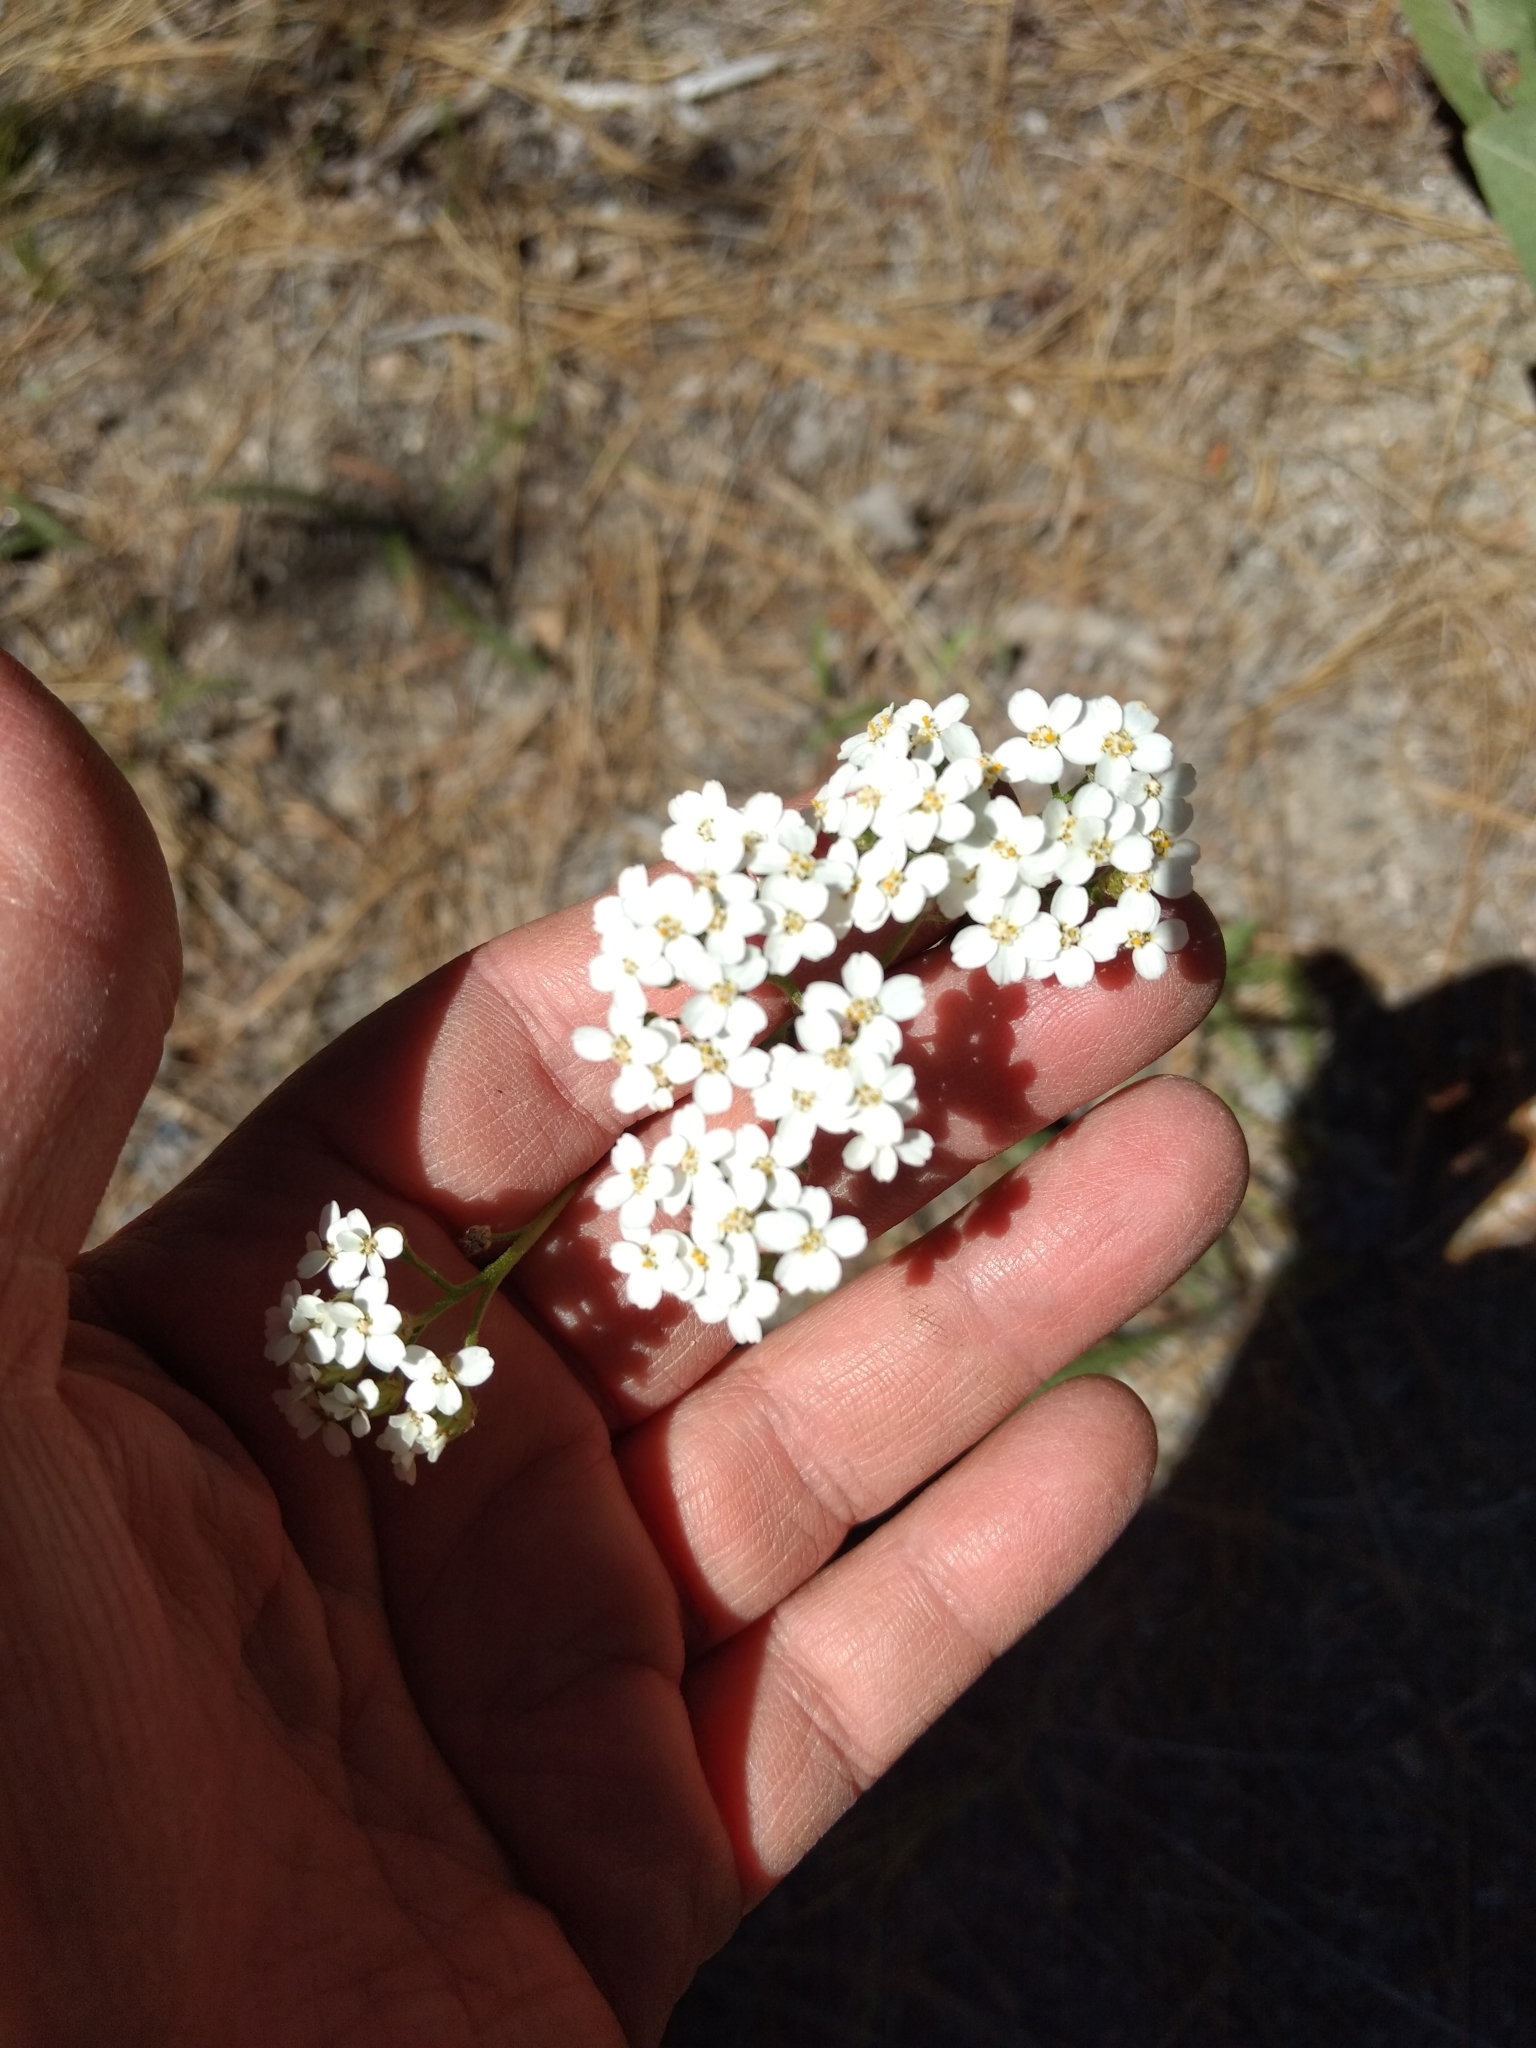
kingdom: Plantae
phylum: Tracheophyta
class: Magnoliopsida
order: Asterales
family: Asteraceae
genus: Achillea
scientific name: Achillea millefolium
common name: Yarrow
